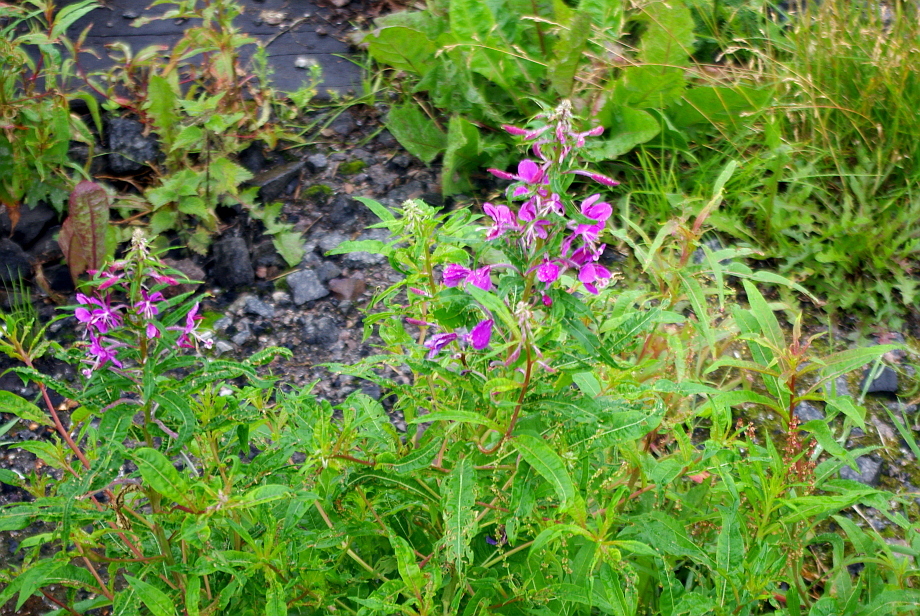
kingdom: Plantae
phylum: Tracheophyta
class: Magnoliopsida
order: Myrtales
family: Onagraceae
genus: Chamaenerion
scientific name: Chamaenerion angustifolium
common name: Fireweed
